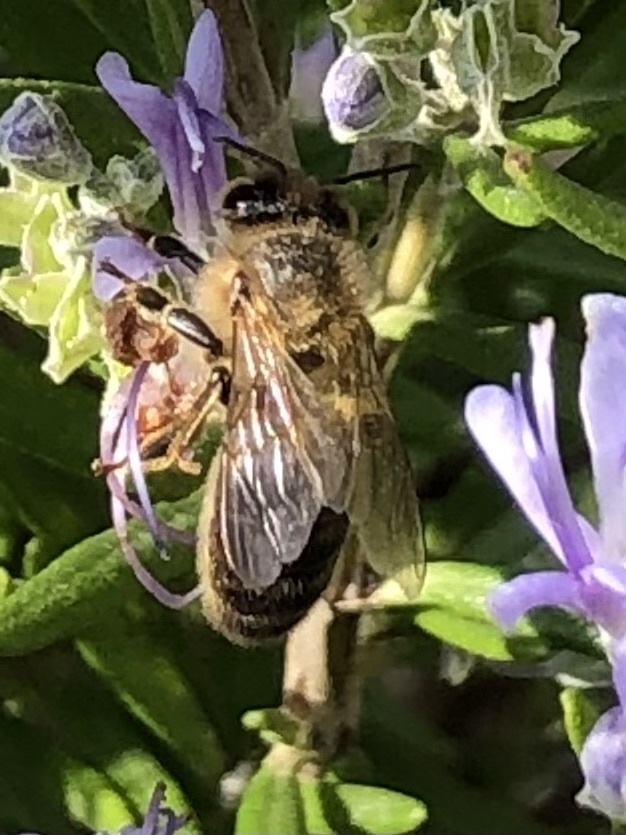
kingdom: Animalia
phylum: Arthropoda
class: Insecta
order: Hymenoptera
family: Apidae
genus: Apis
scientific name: Apis mellifera
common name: Honey bee
